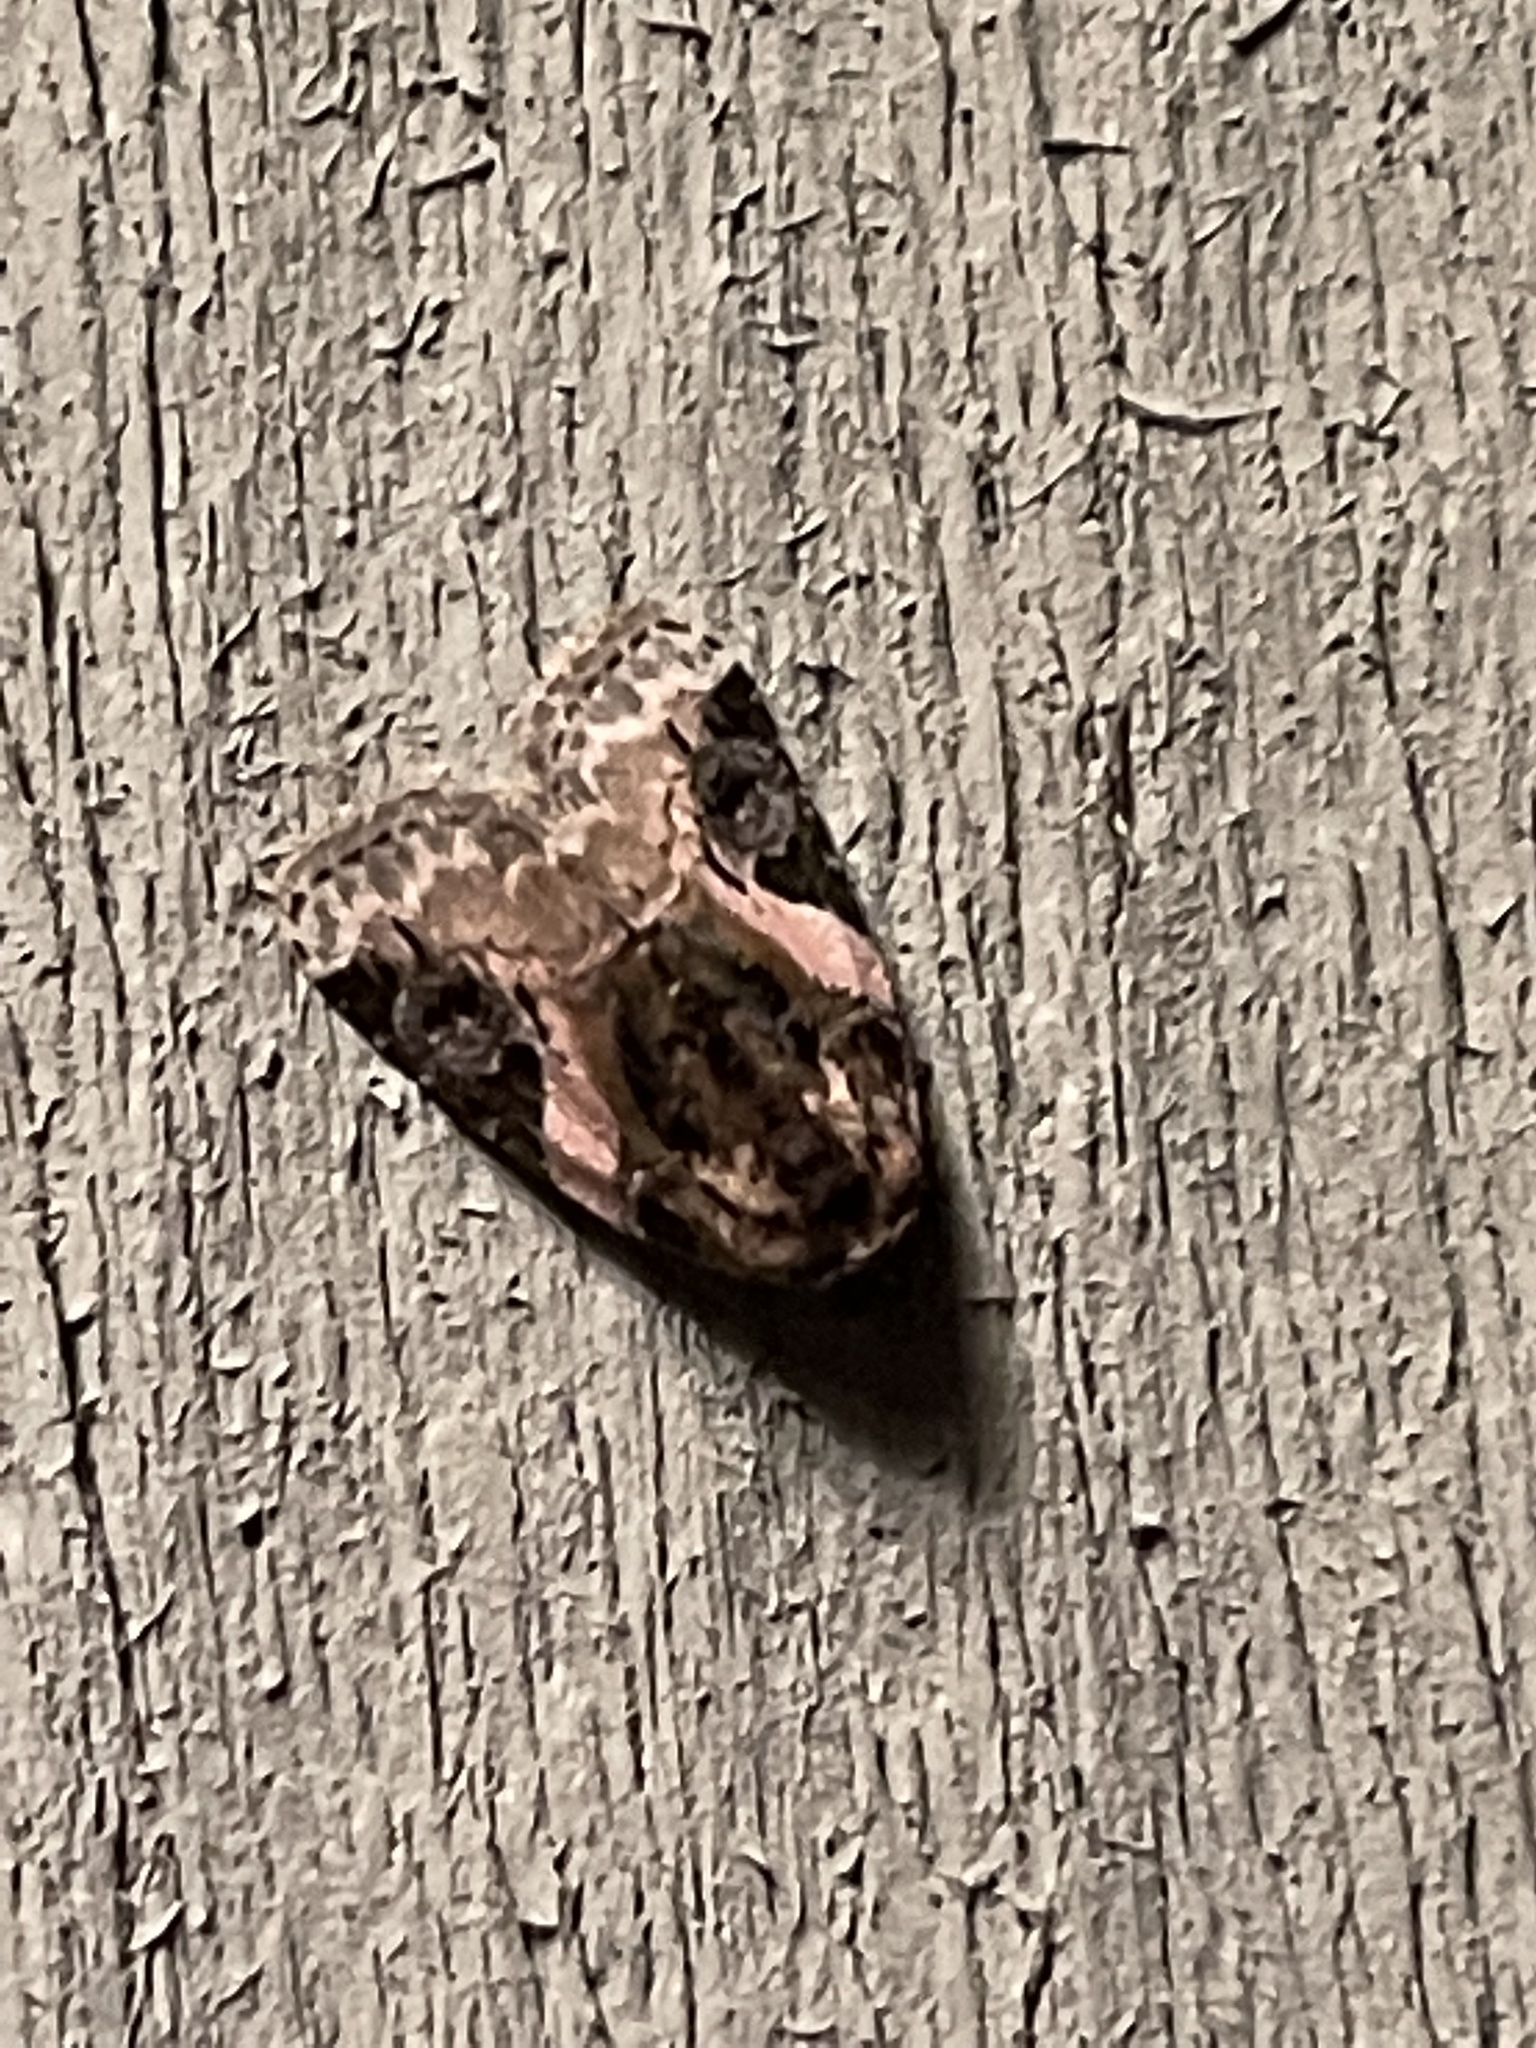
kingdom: Animalia
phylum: Arthropoda
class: Insecta
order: Lepidoptera
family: Noctuidae
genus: Pseudeustrotia
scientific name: Pseudeustrotia carneola
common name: Pink-barred lithacodia moth
